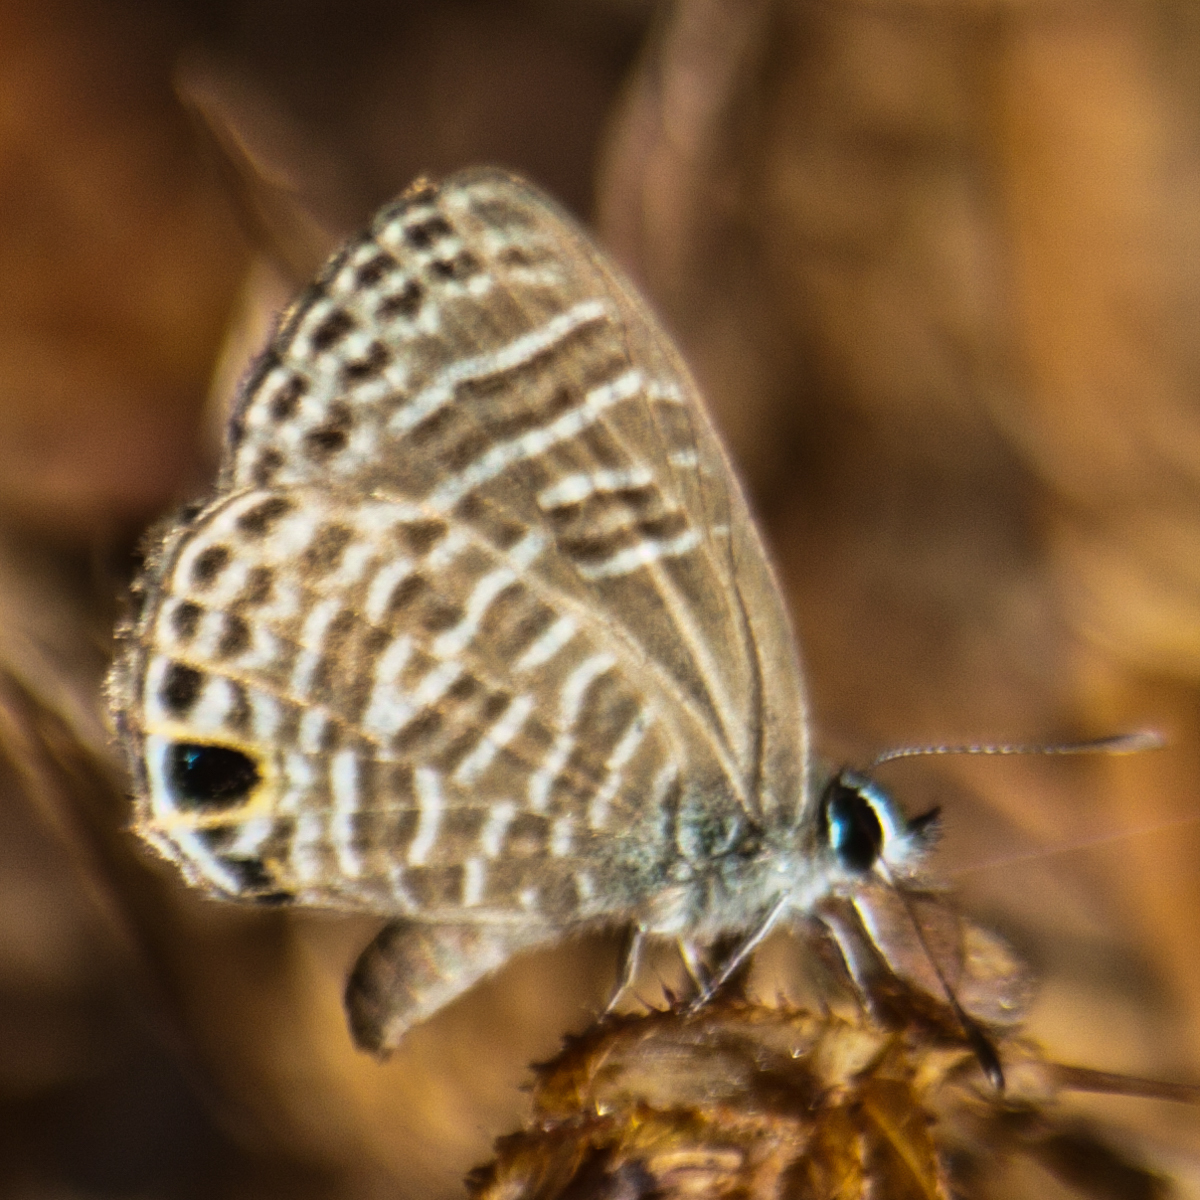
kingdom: Animalia
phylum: Arthropoda
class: Insecta
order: Lepidoptera
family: Lycaenidae
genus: Nacaduba
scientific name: Nacaduba pavana
